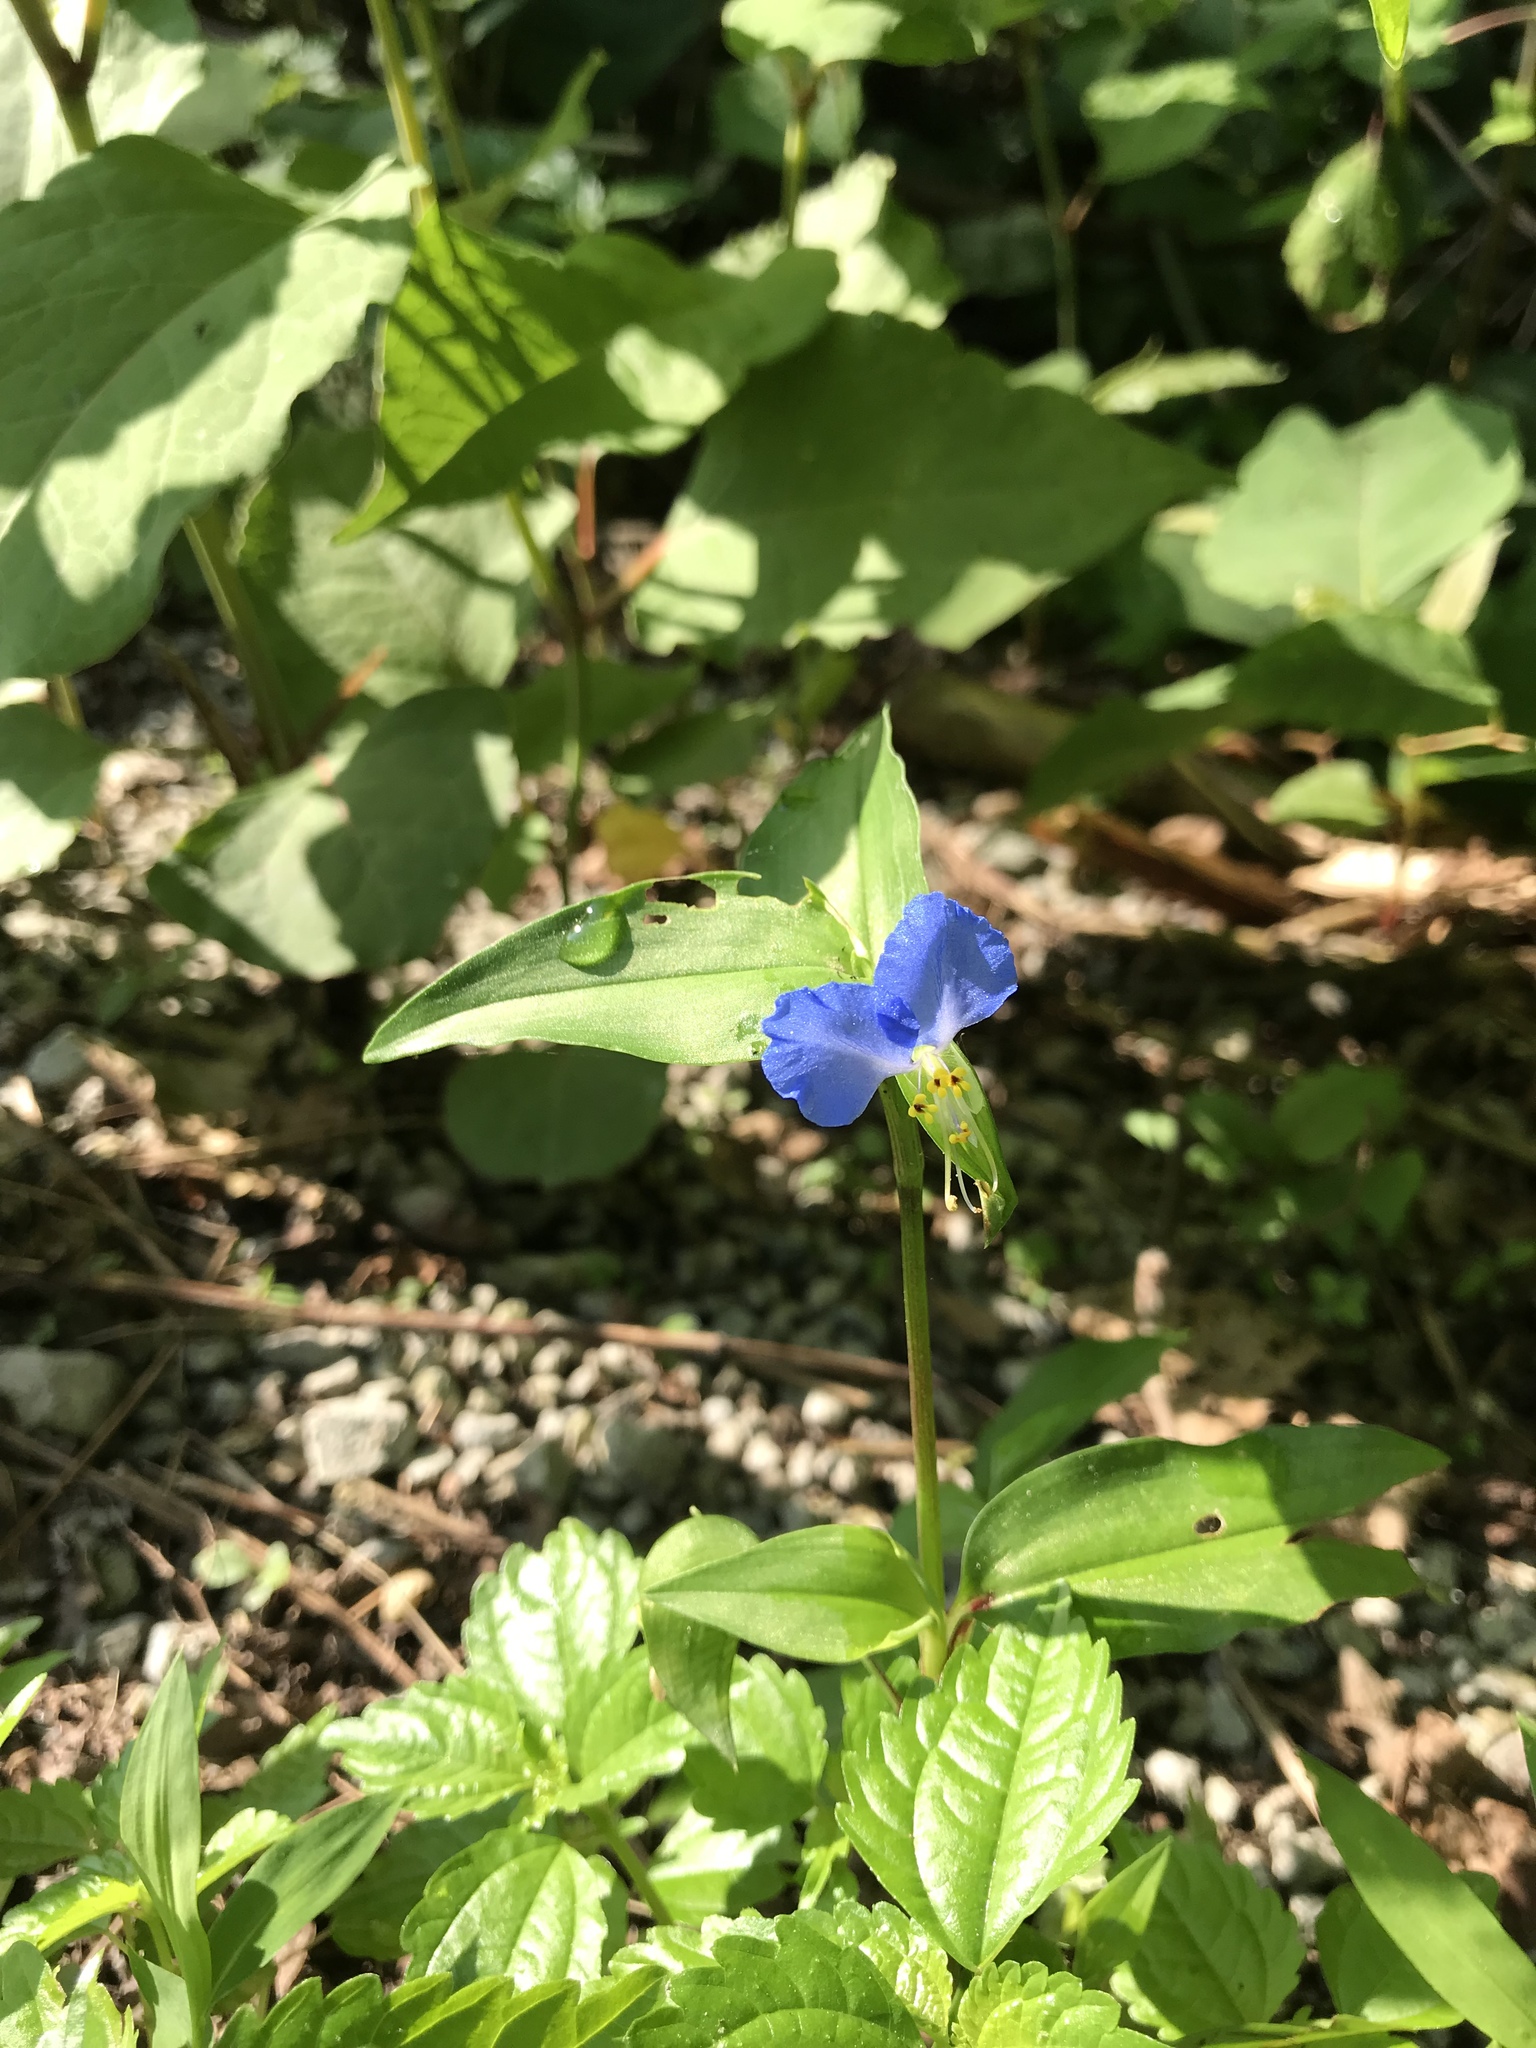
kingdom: Plantae
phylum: Tracheophyta
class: Liliopsida
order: Commelinales
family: Commelinaceae
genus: Commelina
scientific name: Commelina communis
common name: Asiatic dayflower
